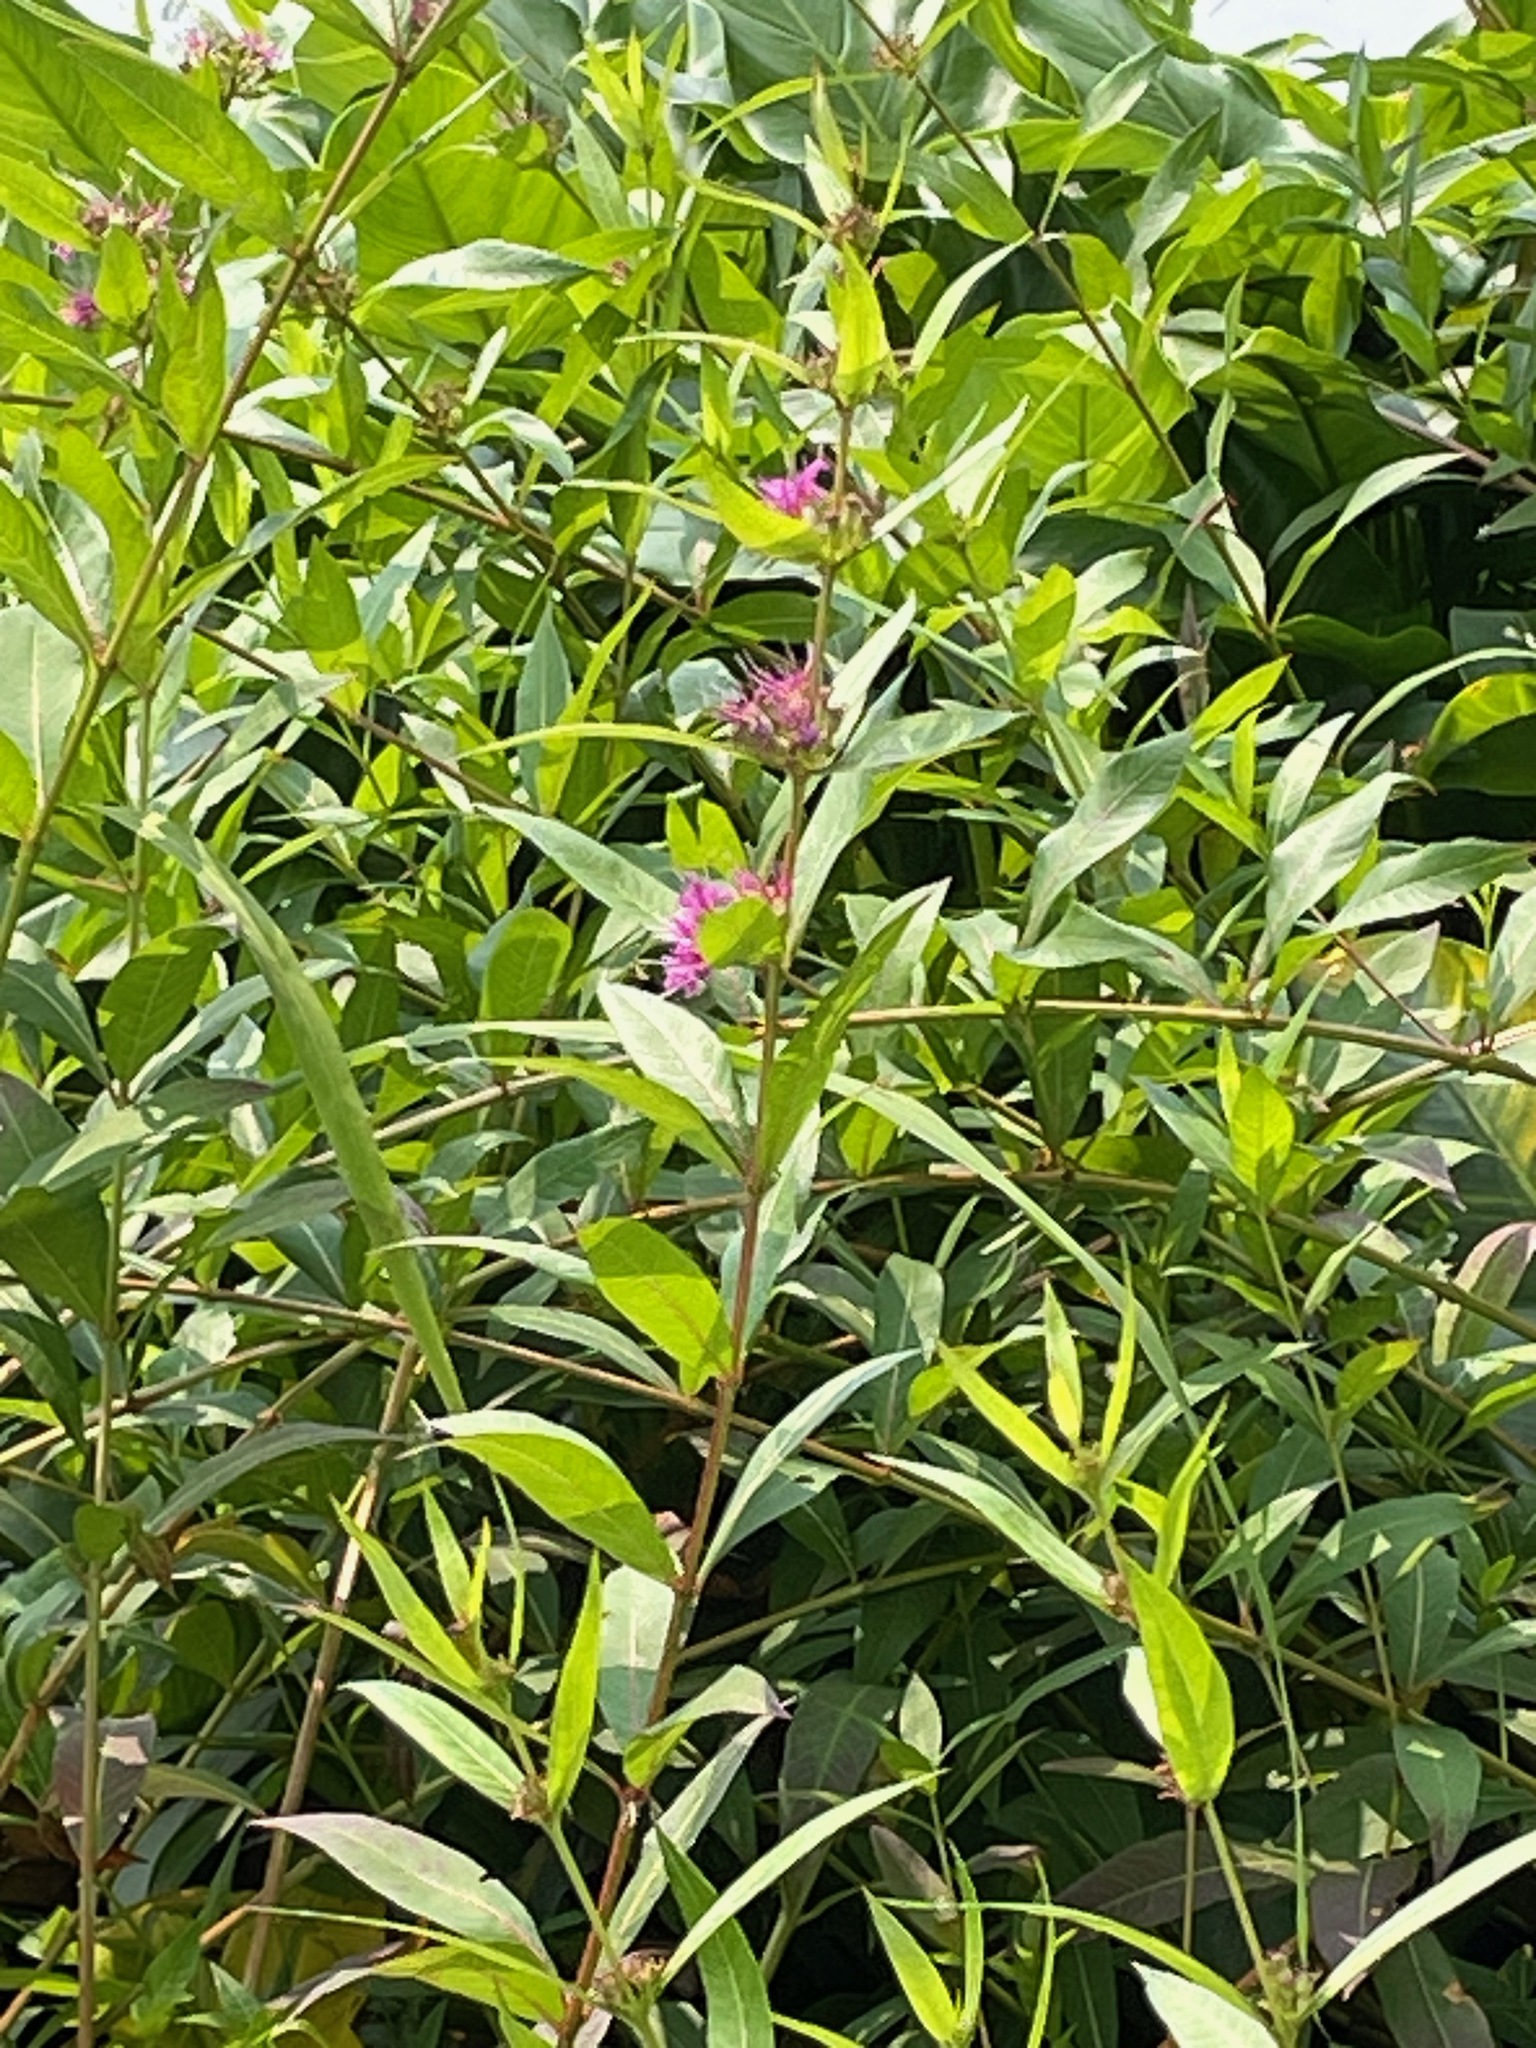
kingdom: Plantae
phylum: Tracheophyta
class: Magnoliopsida
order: Myrtales
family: Lythraceae
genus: Decodon
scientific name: Decodon verticillatus
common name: Hairy swamp loosestrife
